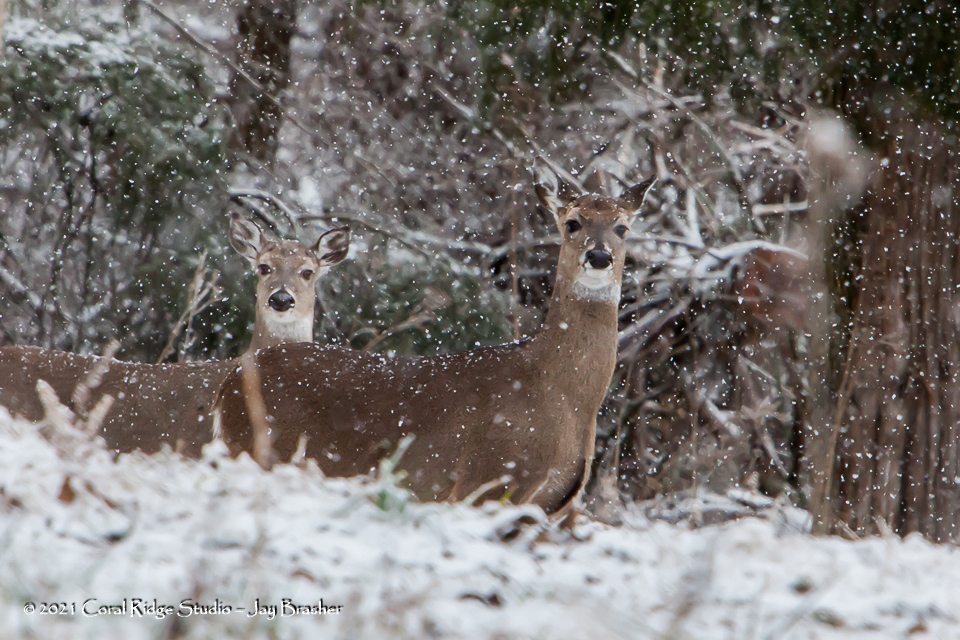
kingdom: Animalia
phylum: Chordata
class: Mammalia
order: Artiodactyla
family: Cervidae
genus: Odocoileus
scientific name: Odocoileus virginianus
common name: White-tailed deer
